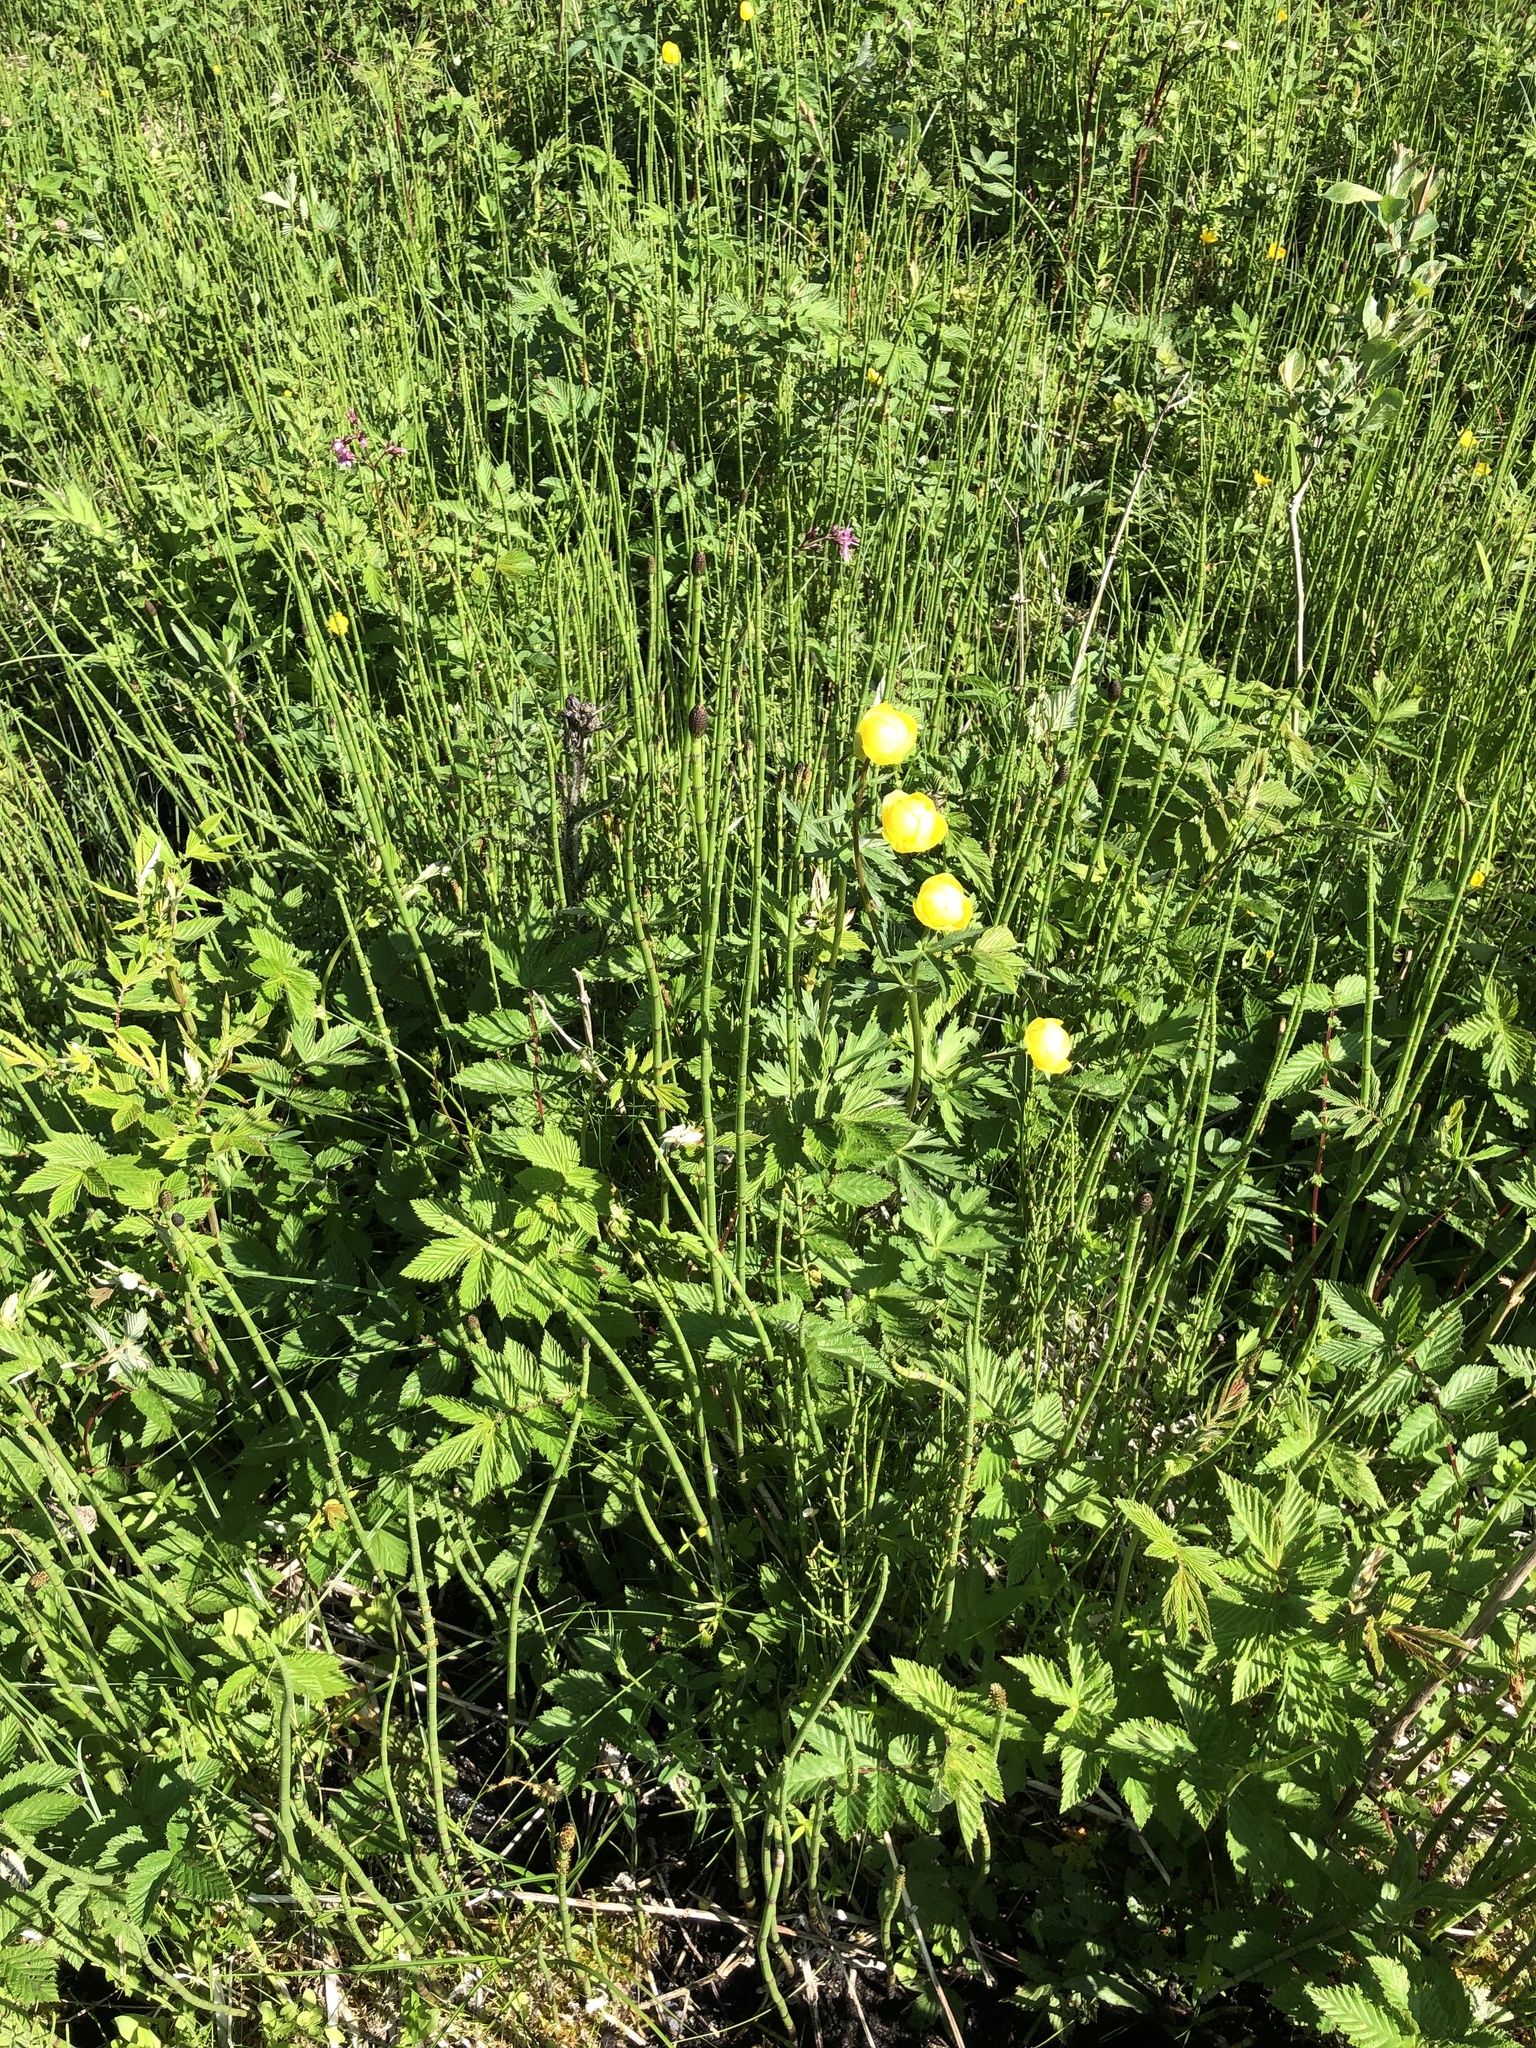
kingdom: Plantae
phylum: Tracheophyta
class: Magnoliopsida
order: Ranunculales
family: Ranunculaceae
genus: Trollius
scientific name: Trollius europaeus
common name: European globeflower
